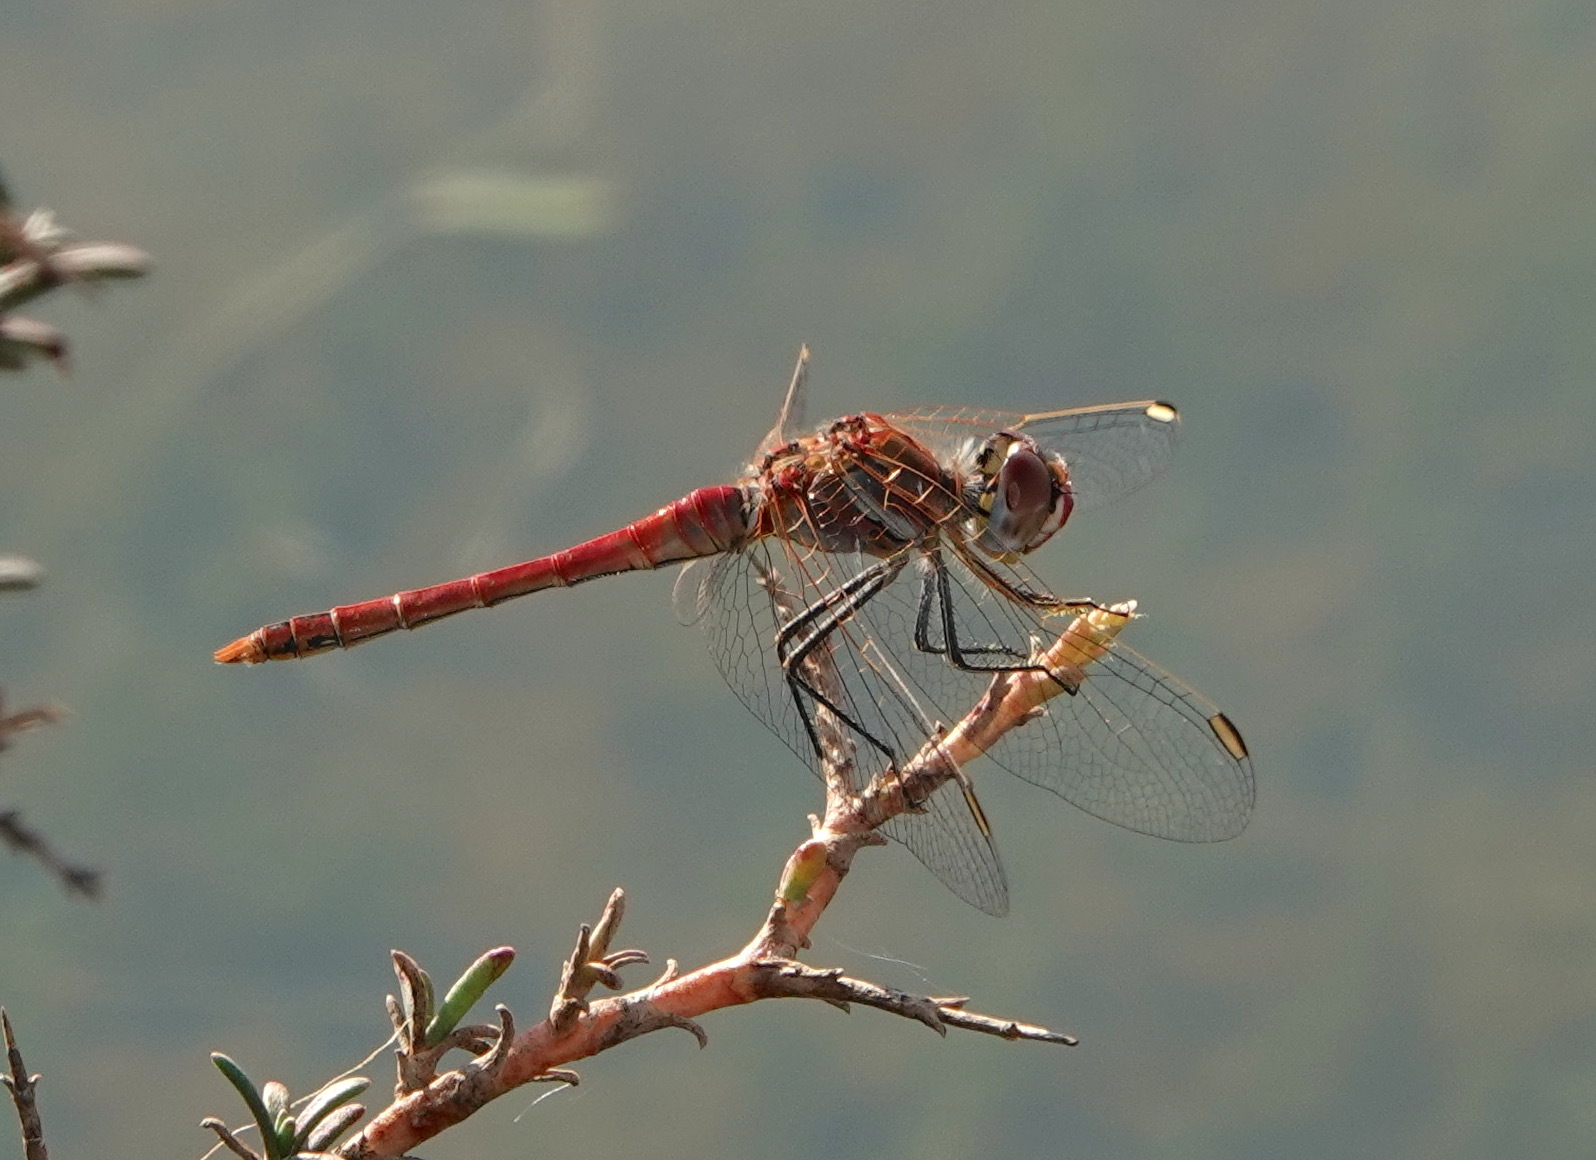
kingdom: Animalia
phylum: Arthropoda
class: Insecta
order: Odonata
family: Libellulidae
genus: Sympetrum
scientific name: Sympetrum fonscolombii
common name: Red-veined darter
